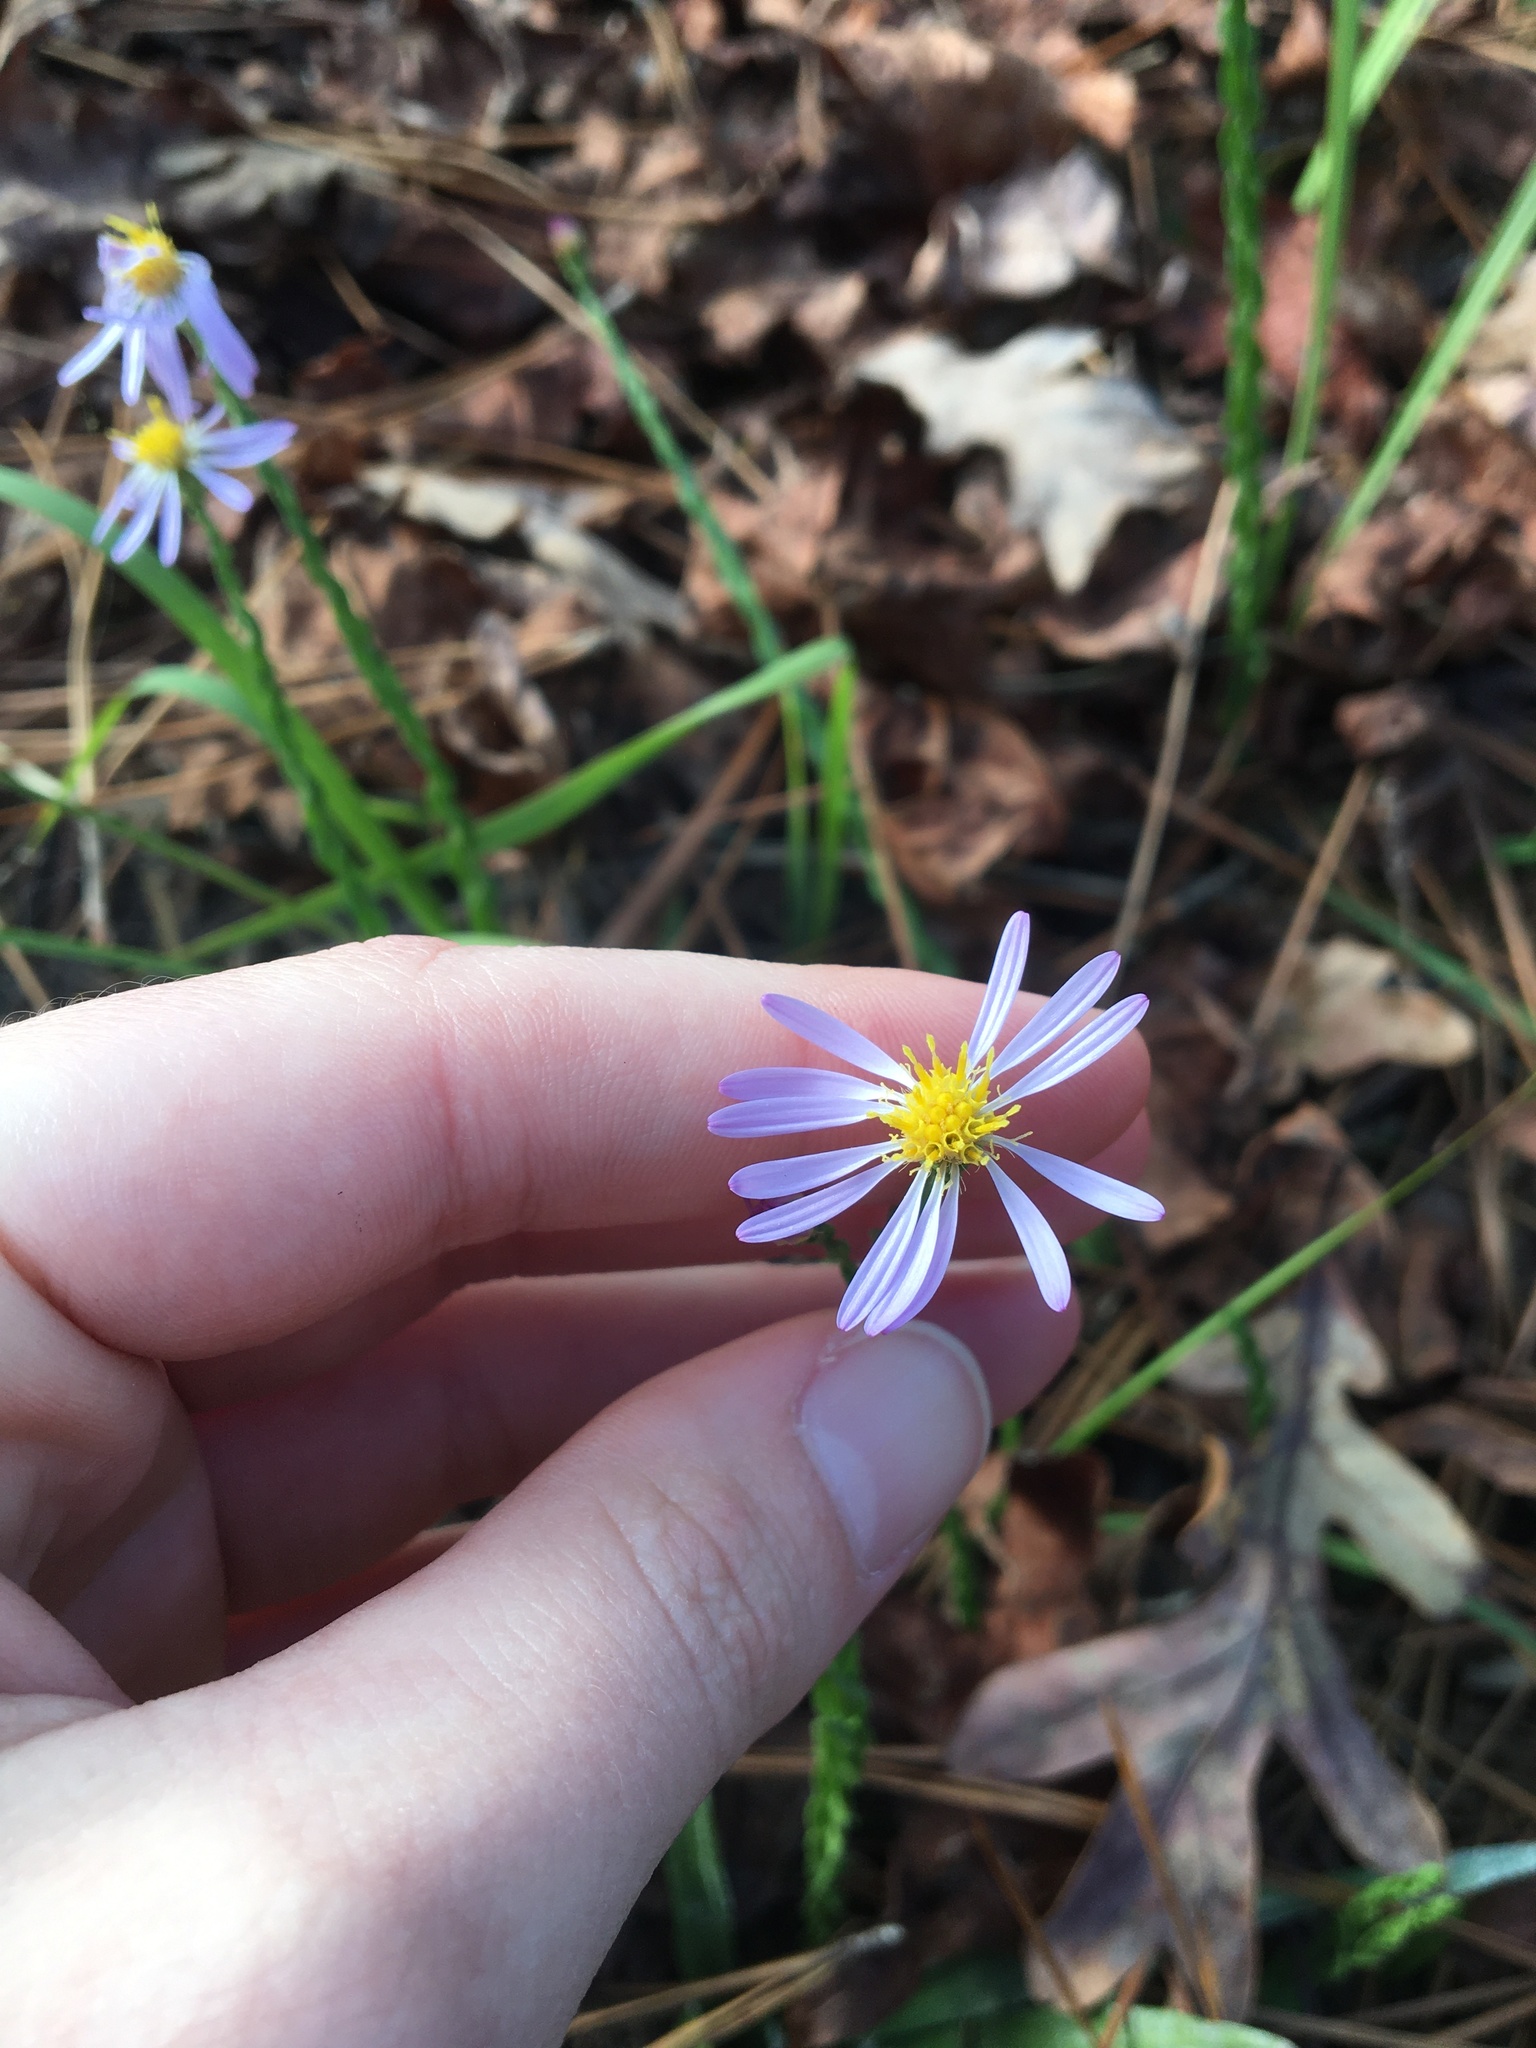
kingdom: Plantae
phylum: Tracheophyta
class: Magnoliopsida
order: Asterales
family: Asteraceae
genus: Symphyotrichum
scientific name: Symphyotrichum adnatum
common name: Scale-leaf aster
